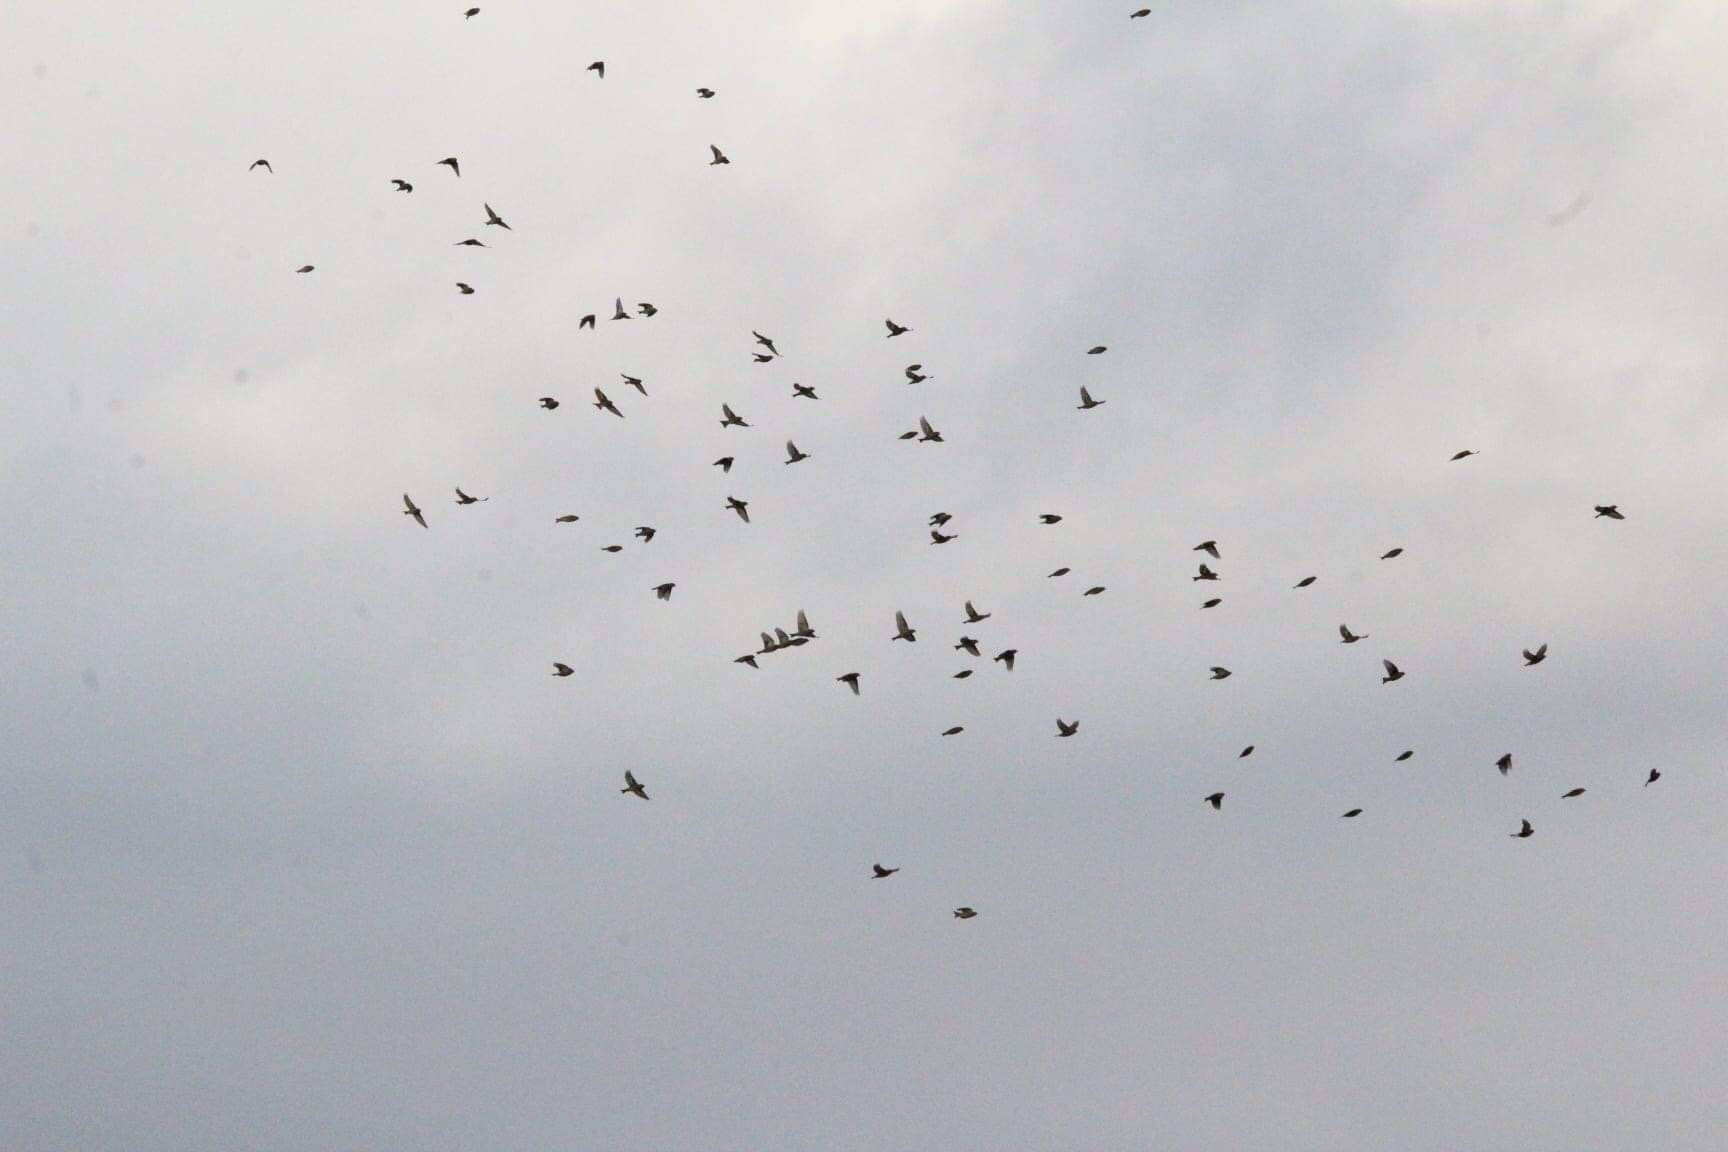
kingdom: Animalia
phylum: Chordata
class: Aves
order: Passeriformes
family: Fringillidae
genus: Spinus
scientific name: Spinus pinus
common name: Pine siskin
